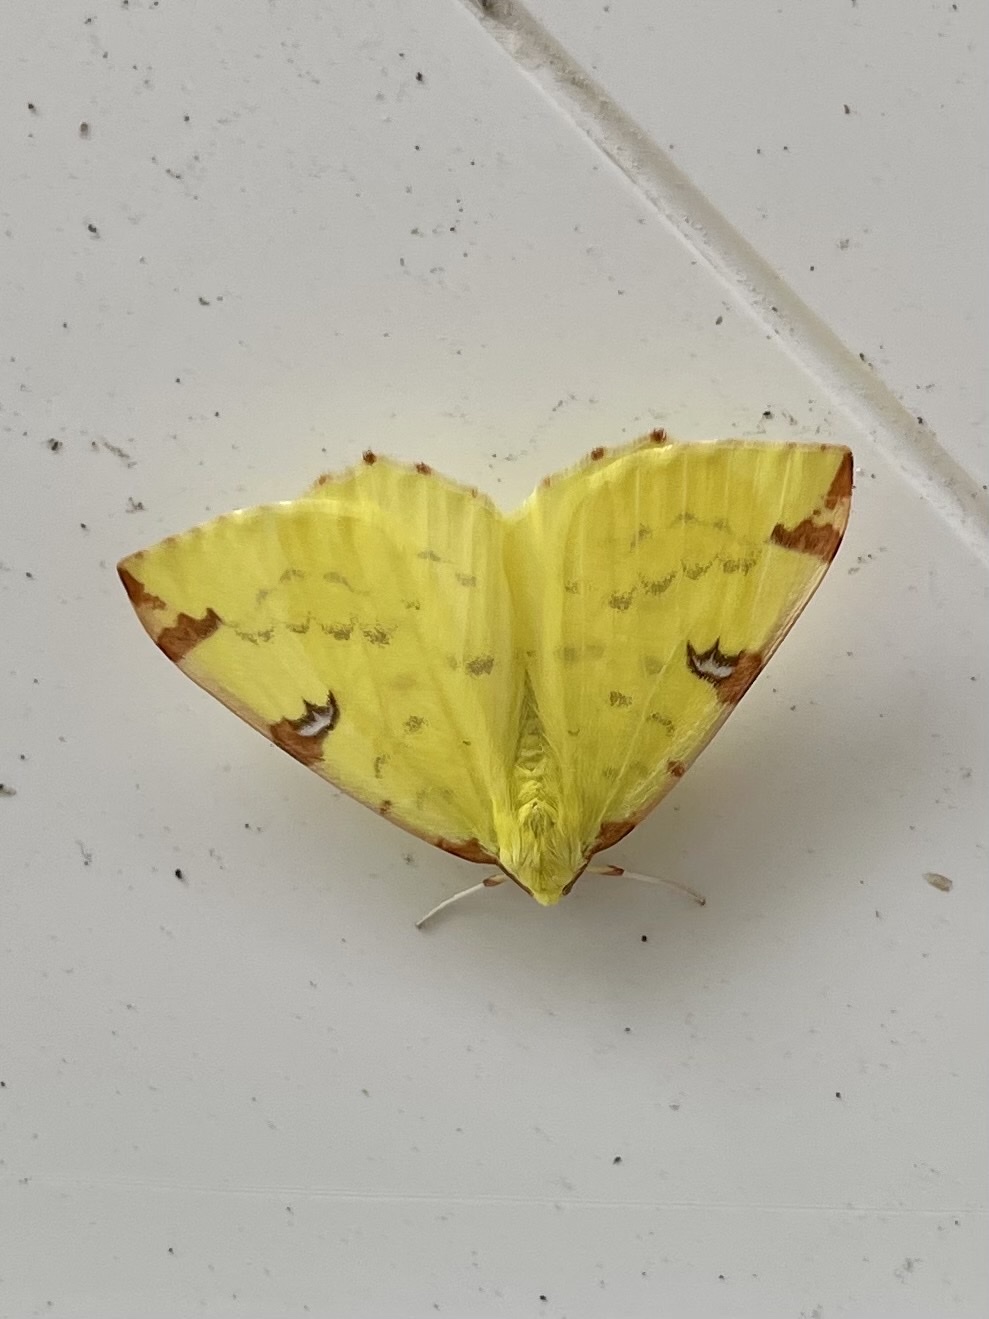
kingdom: Animalia
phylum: Arthropoda
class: Insecta
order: Lepidoptera
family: Geometridae
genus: Opisthograptis
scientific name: Opisthograptis luteolata
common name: Brimstone moth
